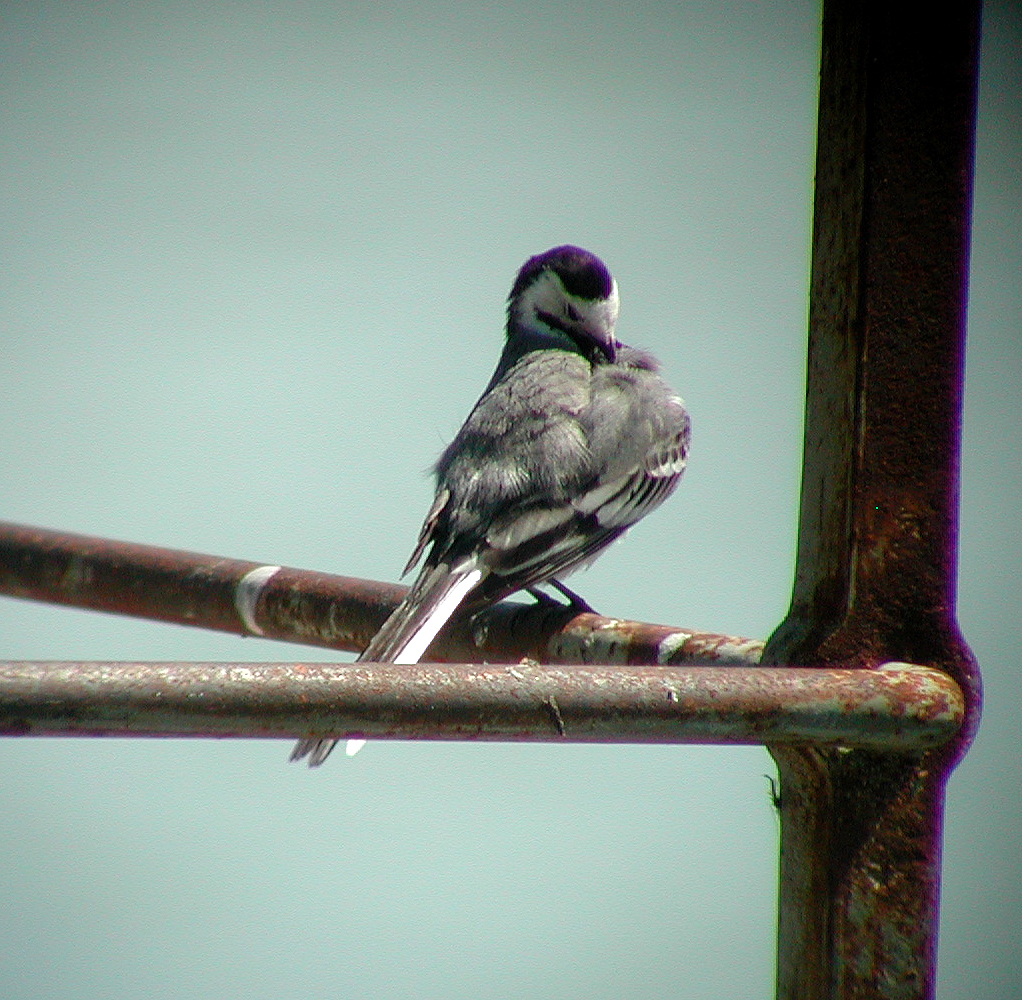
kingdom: Animalia
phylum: Chordata
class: Aves
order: Passeriformes
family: Motacillidae
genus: Motacilla
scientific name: Motacilla alba
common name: White wagtail
